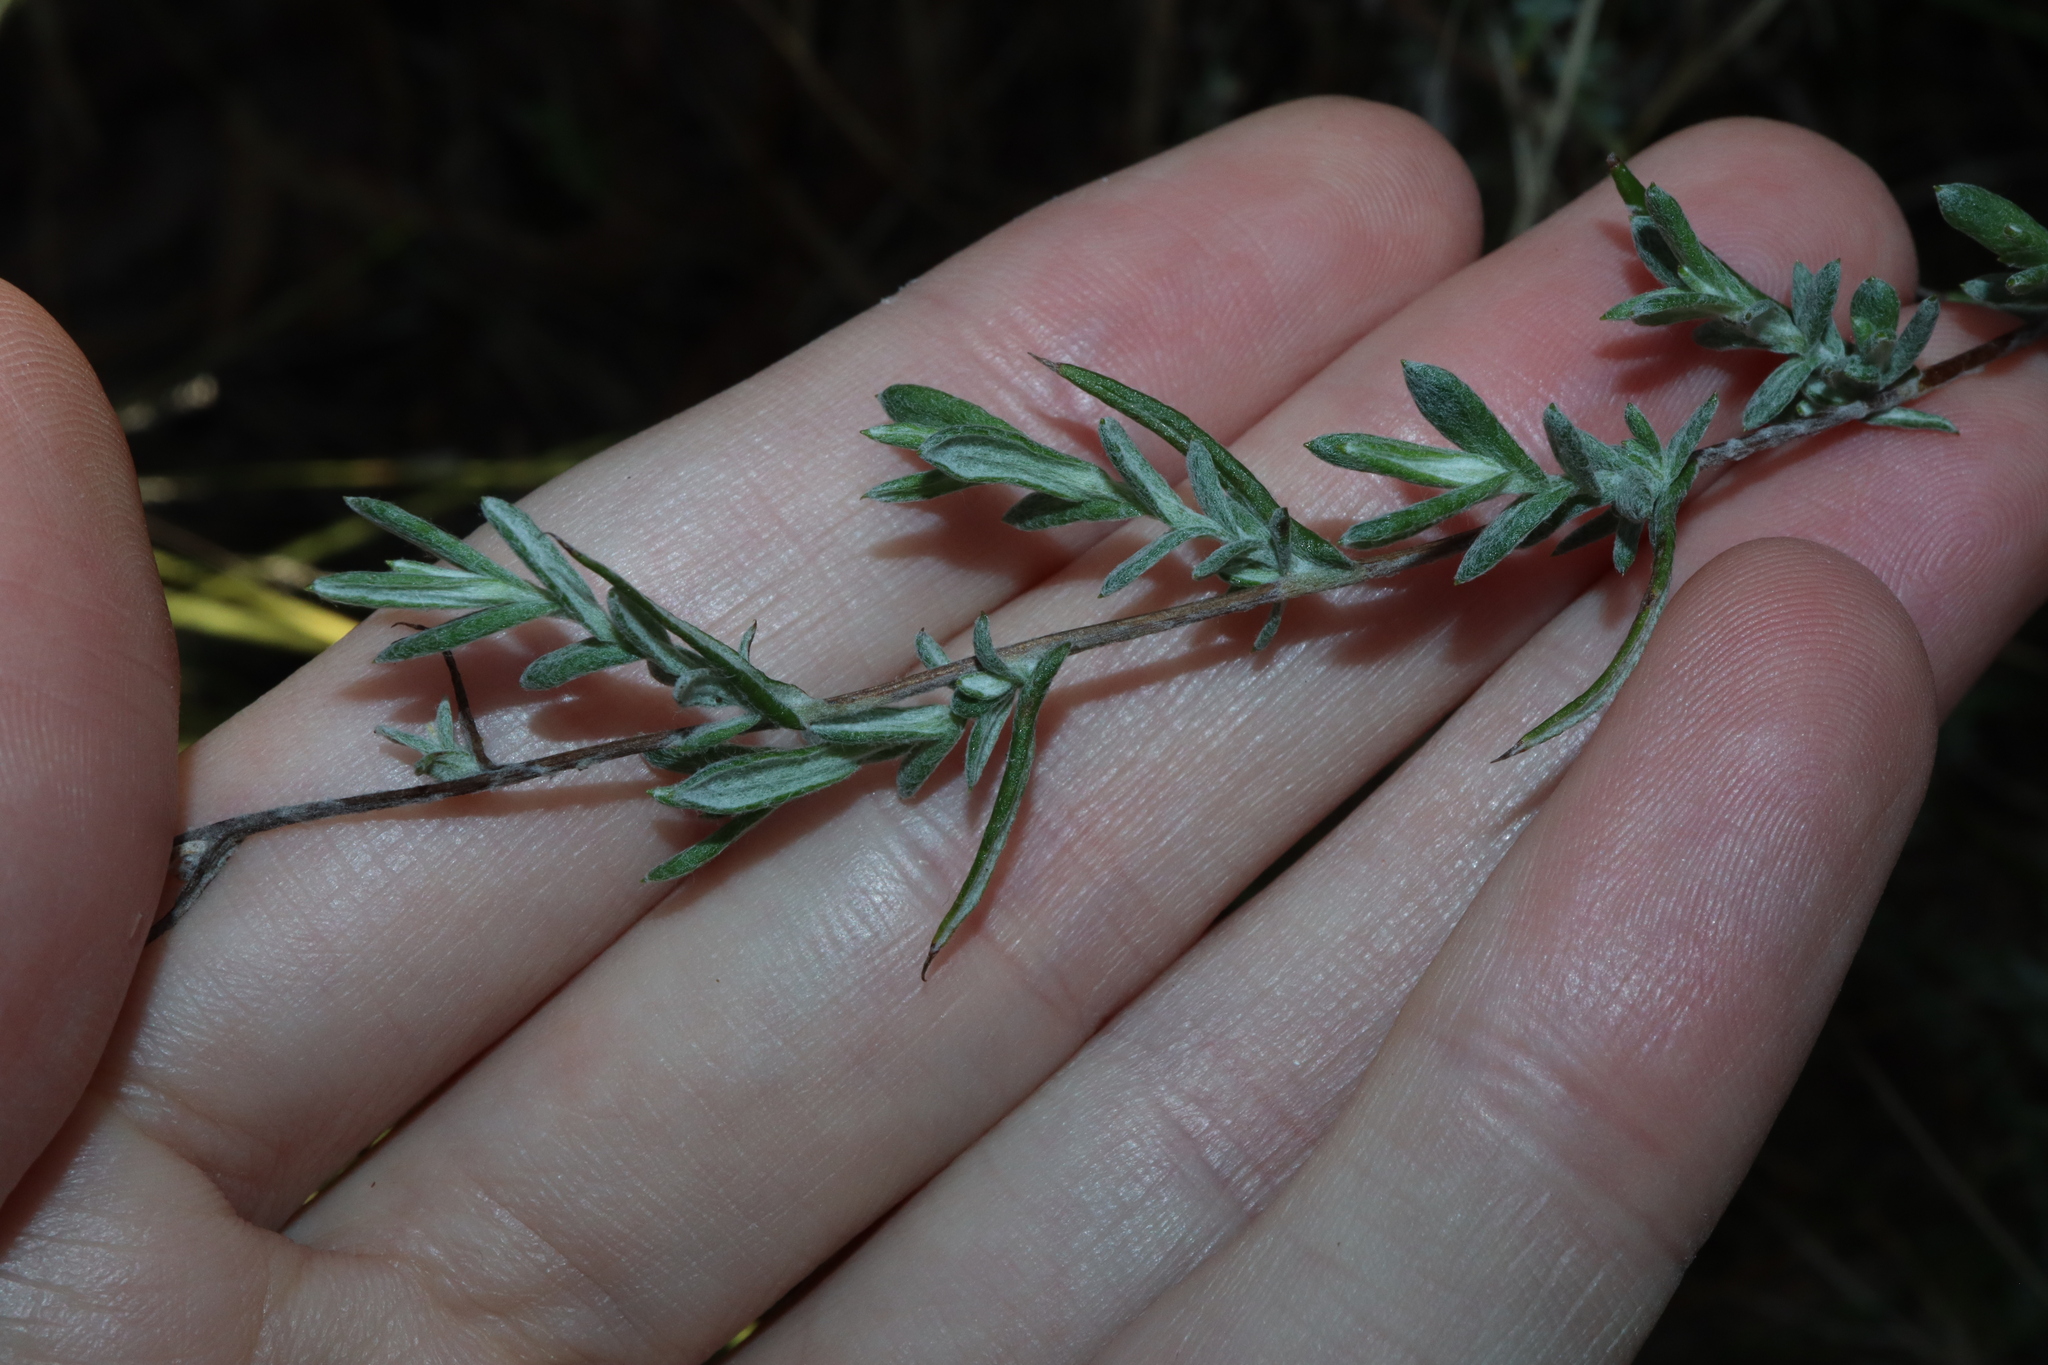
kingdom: Plantae
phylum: Tracheophyta
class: Magnoliopsida
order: Asterales
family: Asteraceae
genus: Chrysocephalum
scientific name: Chrysocephalum semipapposum
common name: Clustered everlasting
